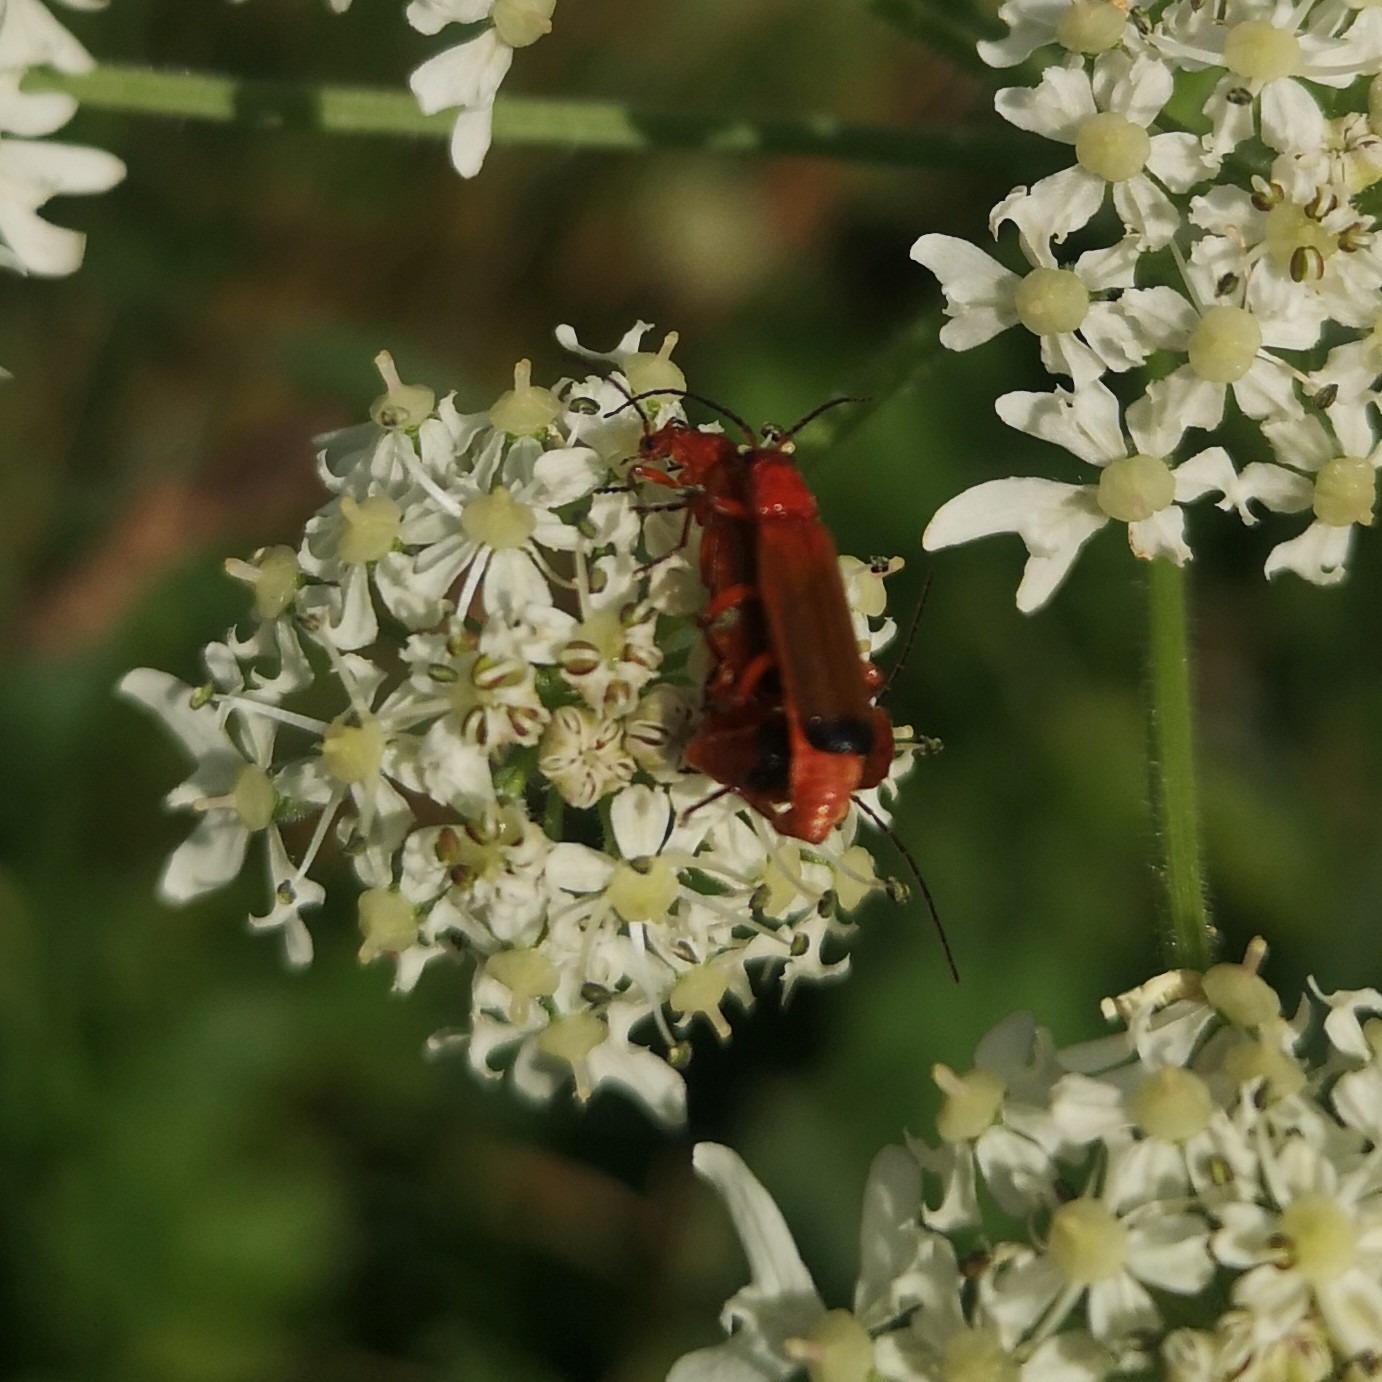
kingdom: Animalia
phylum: Arthropoda
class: Insecta
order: Coleoptera
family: Cantharidae
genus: Rhagonycha
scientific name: Rhagonycha fulva
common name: Common red soldier beetle
